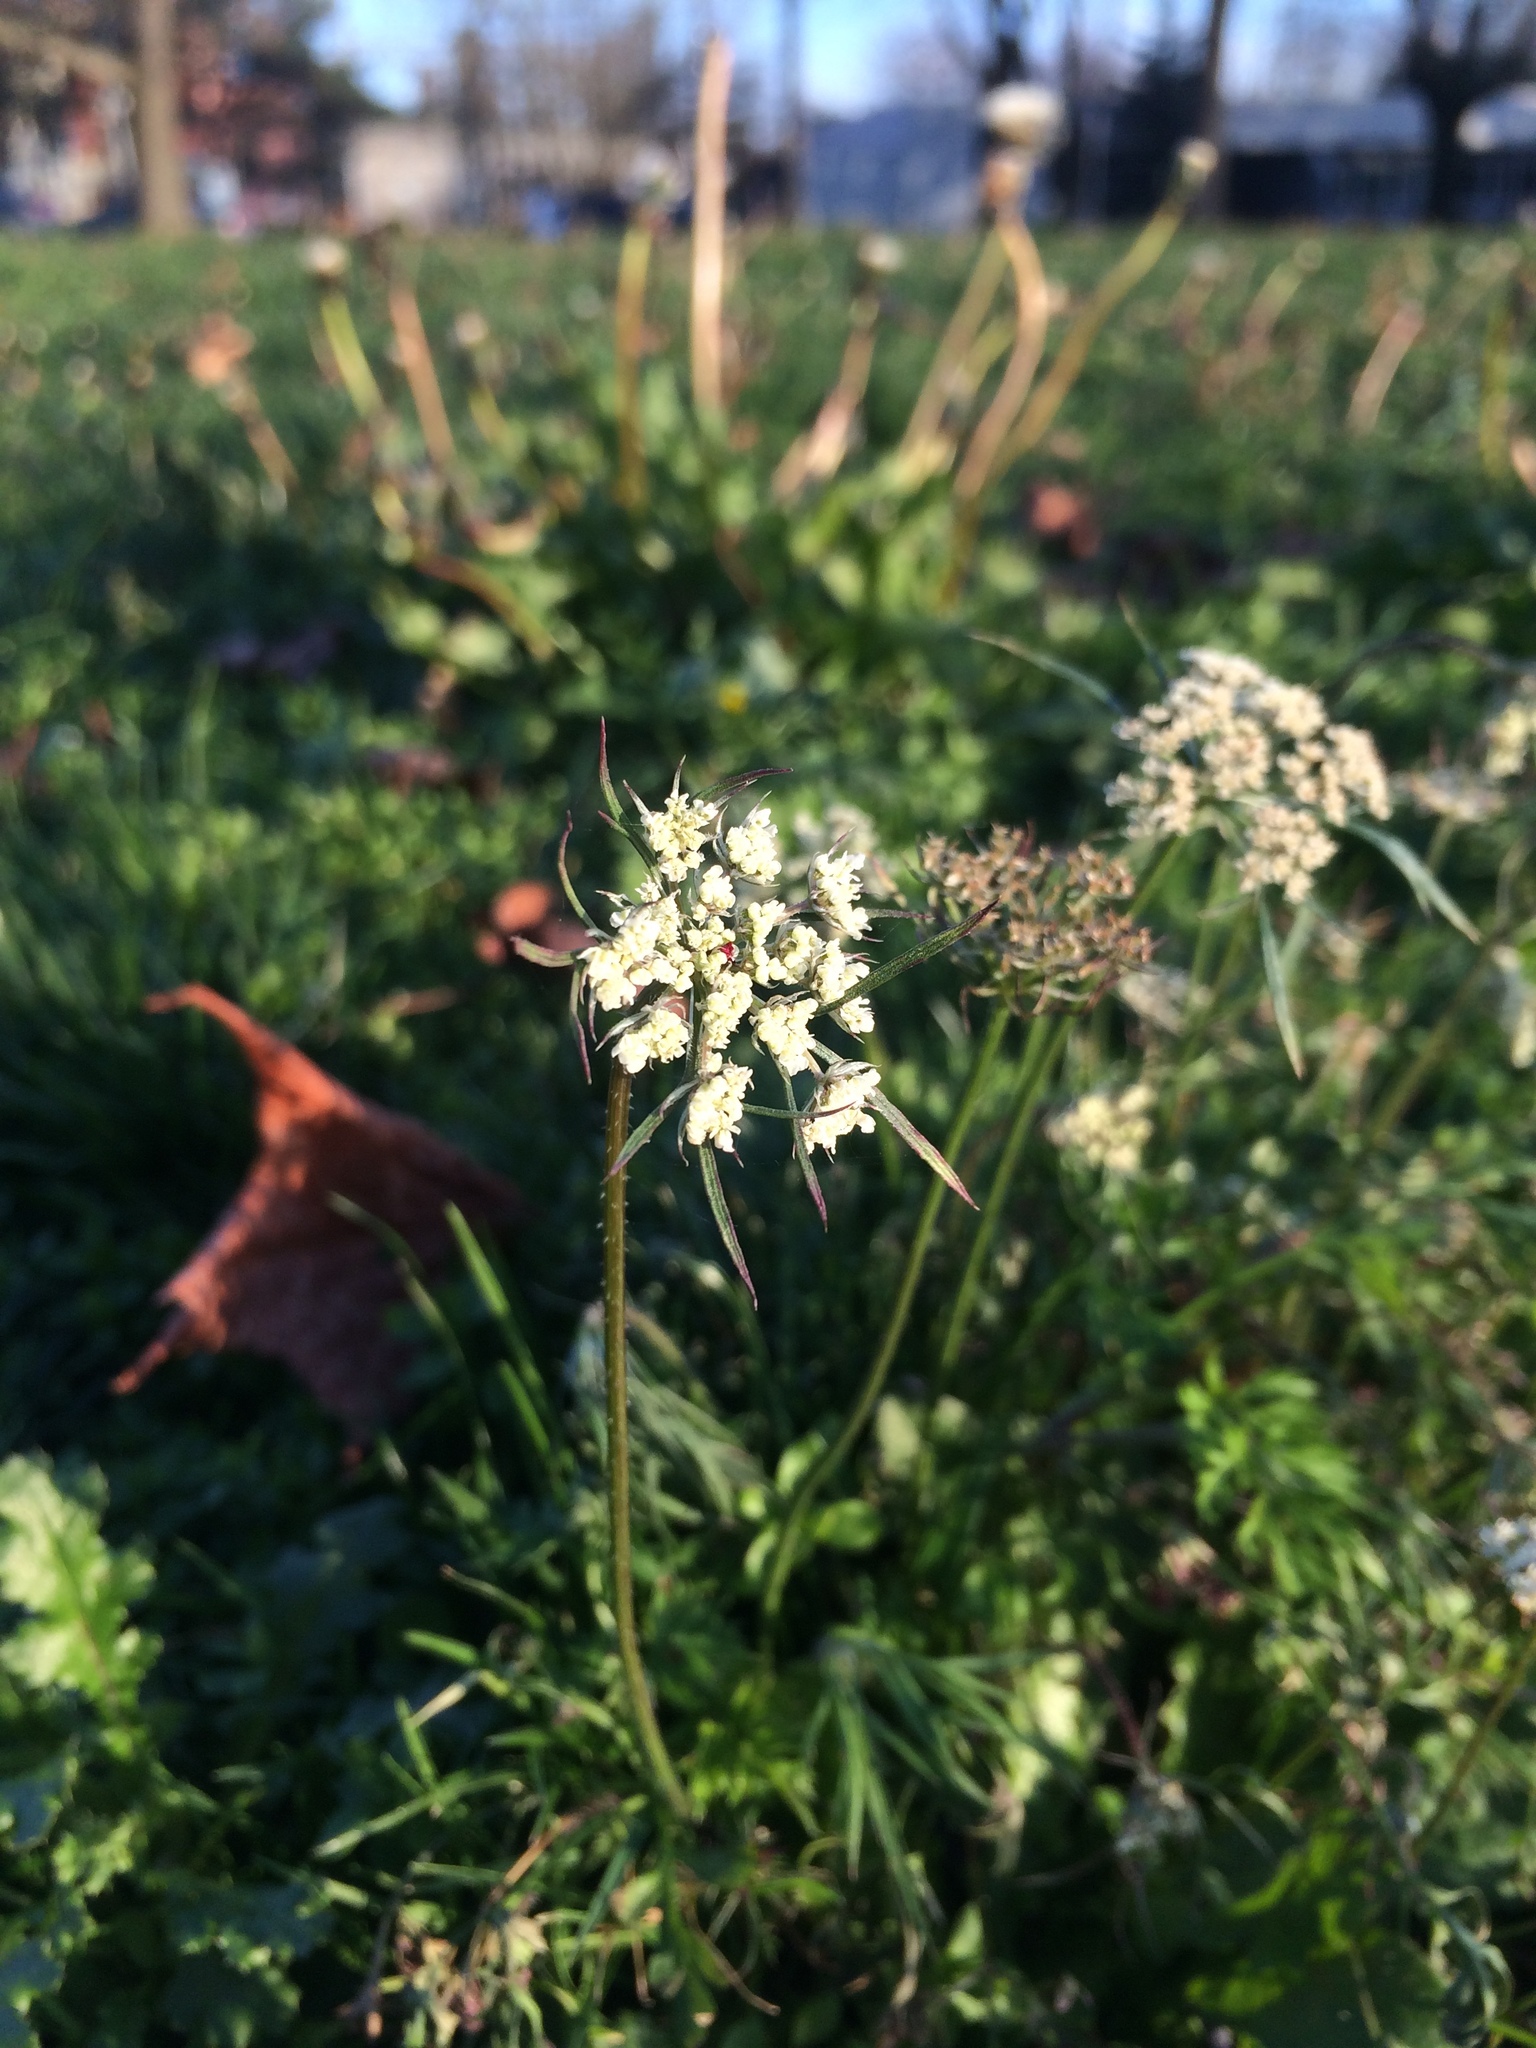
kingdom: Plantae
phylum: Tracheophyta
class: Magnoliopsida
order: Apiales
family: Apiaceae
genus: Daucus
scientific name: Daucus carota
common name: Wild carrot
